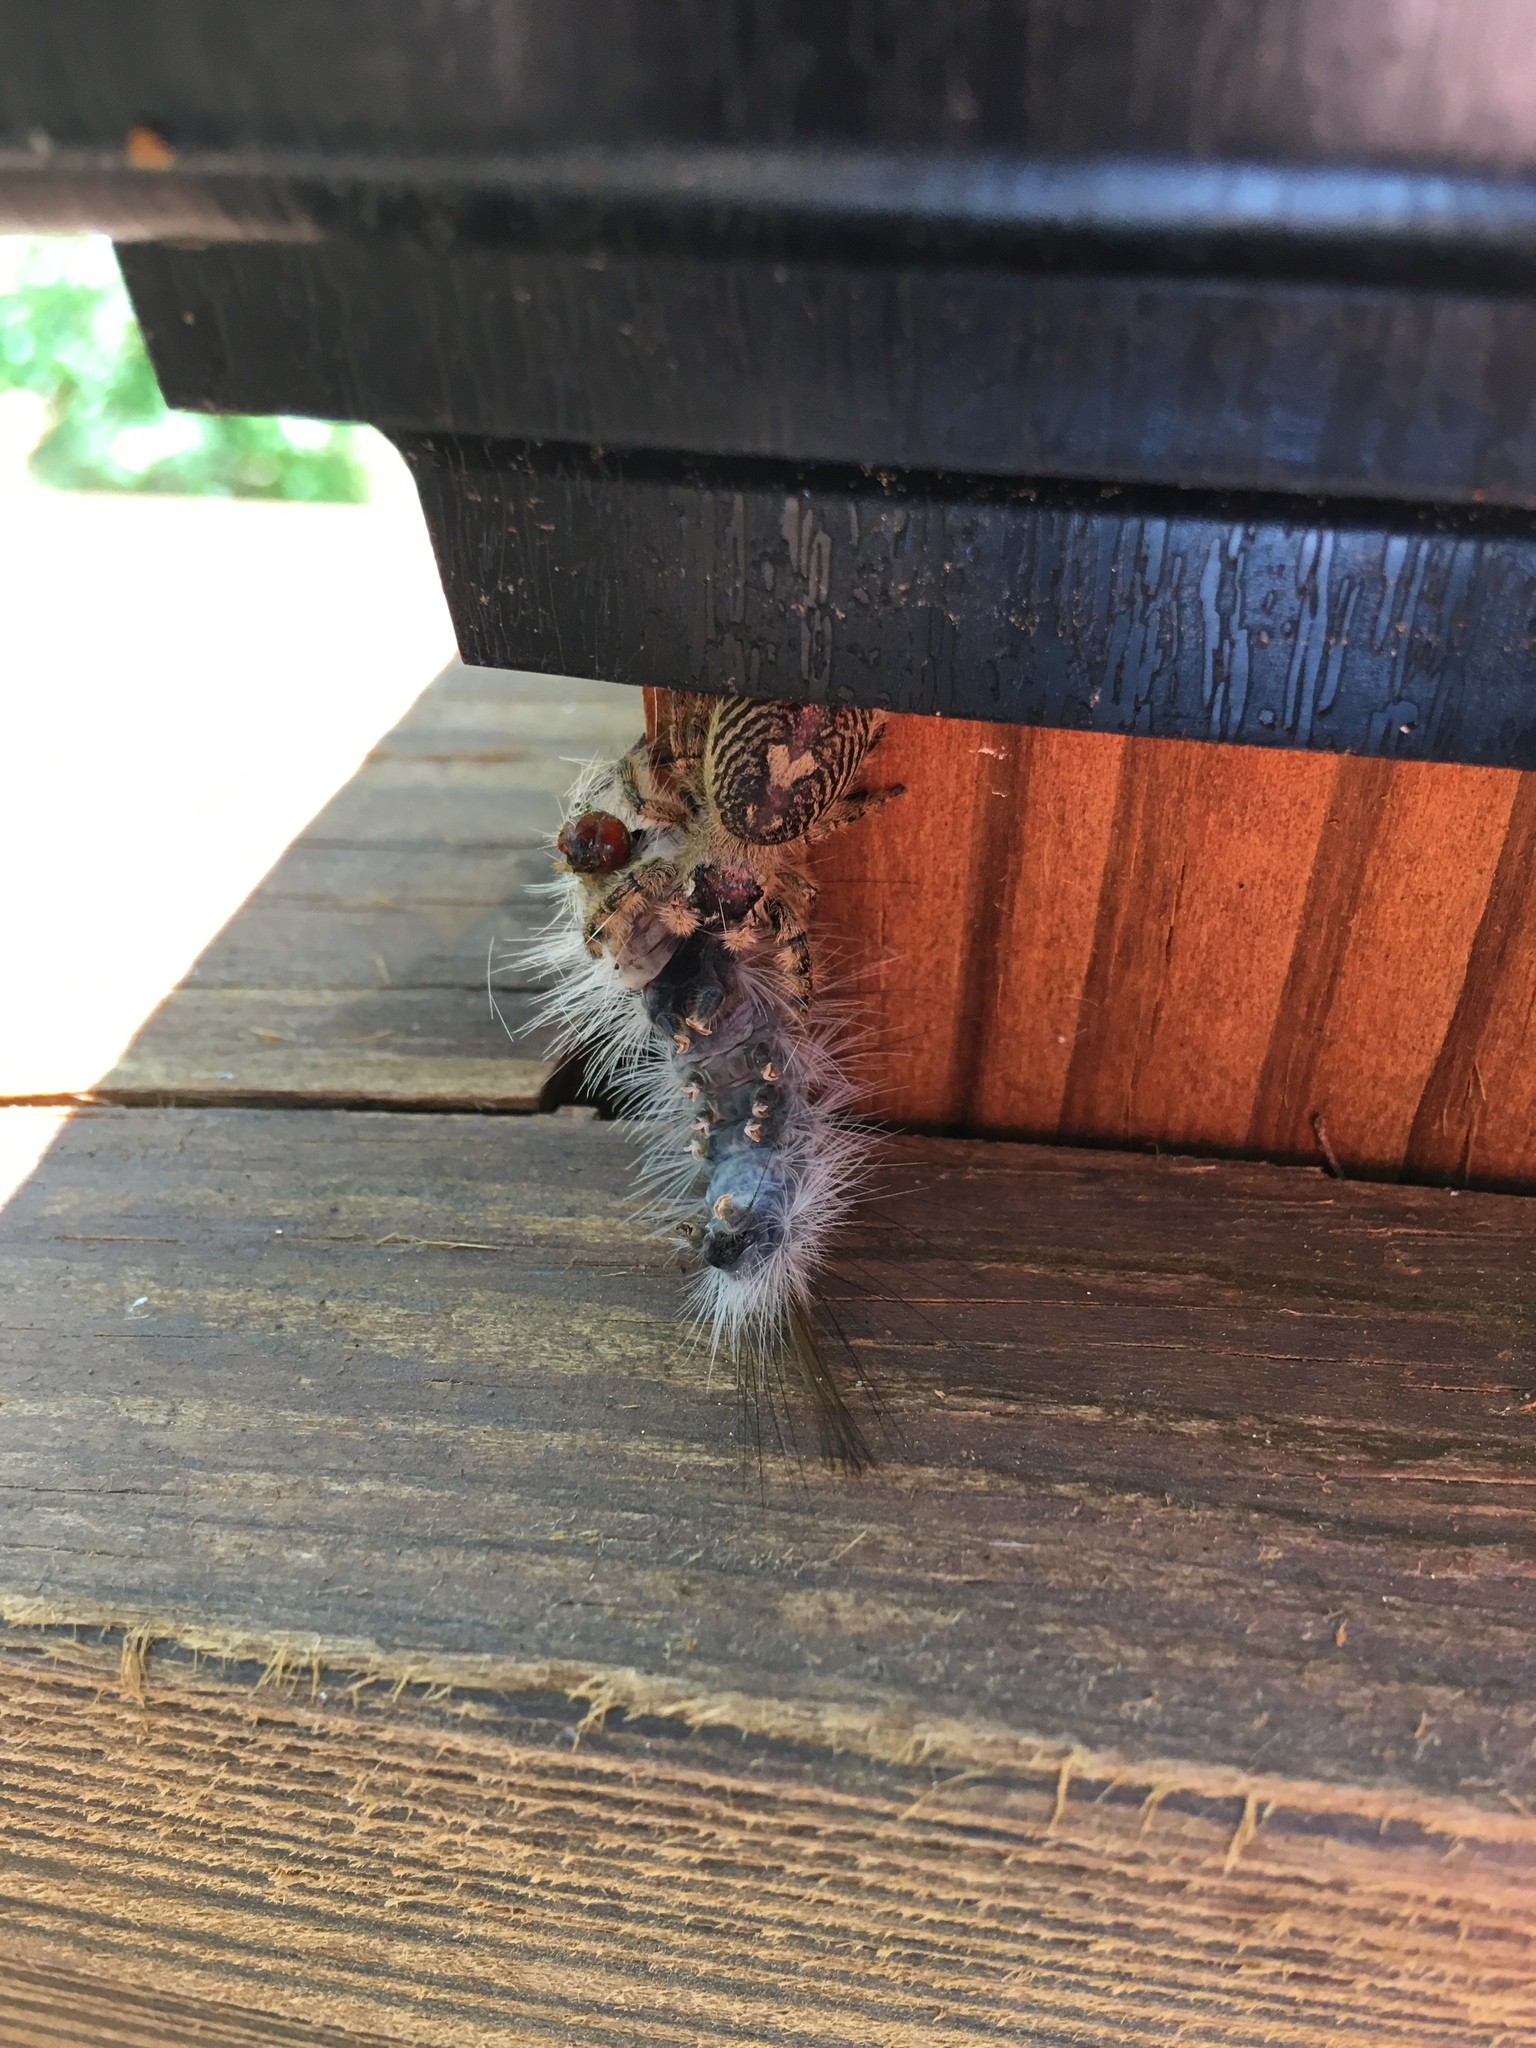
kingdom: Animalia
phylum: Arthropoda
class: Arachnida
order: Araneae
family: Salticidae
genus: Phidippus
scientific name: Phidippus otiosus
